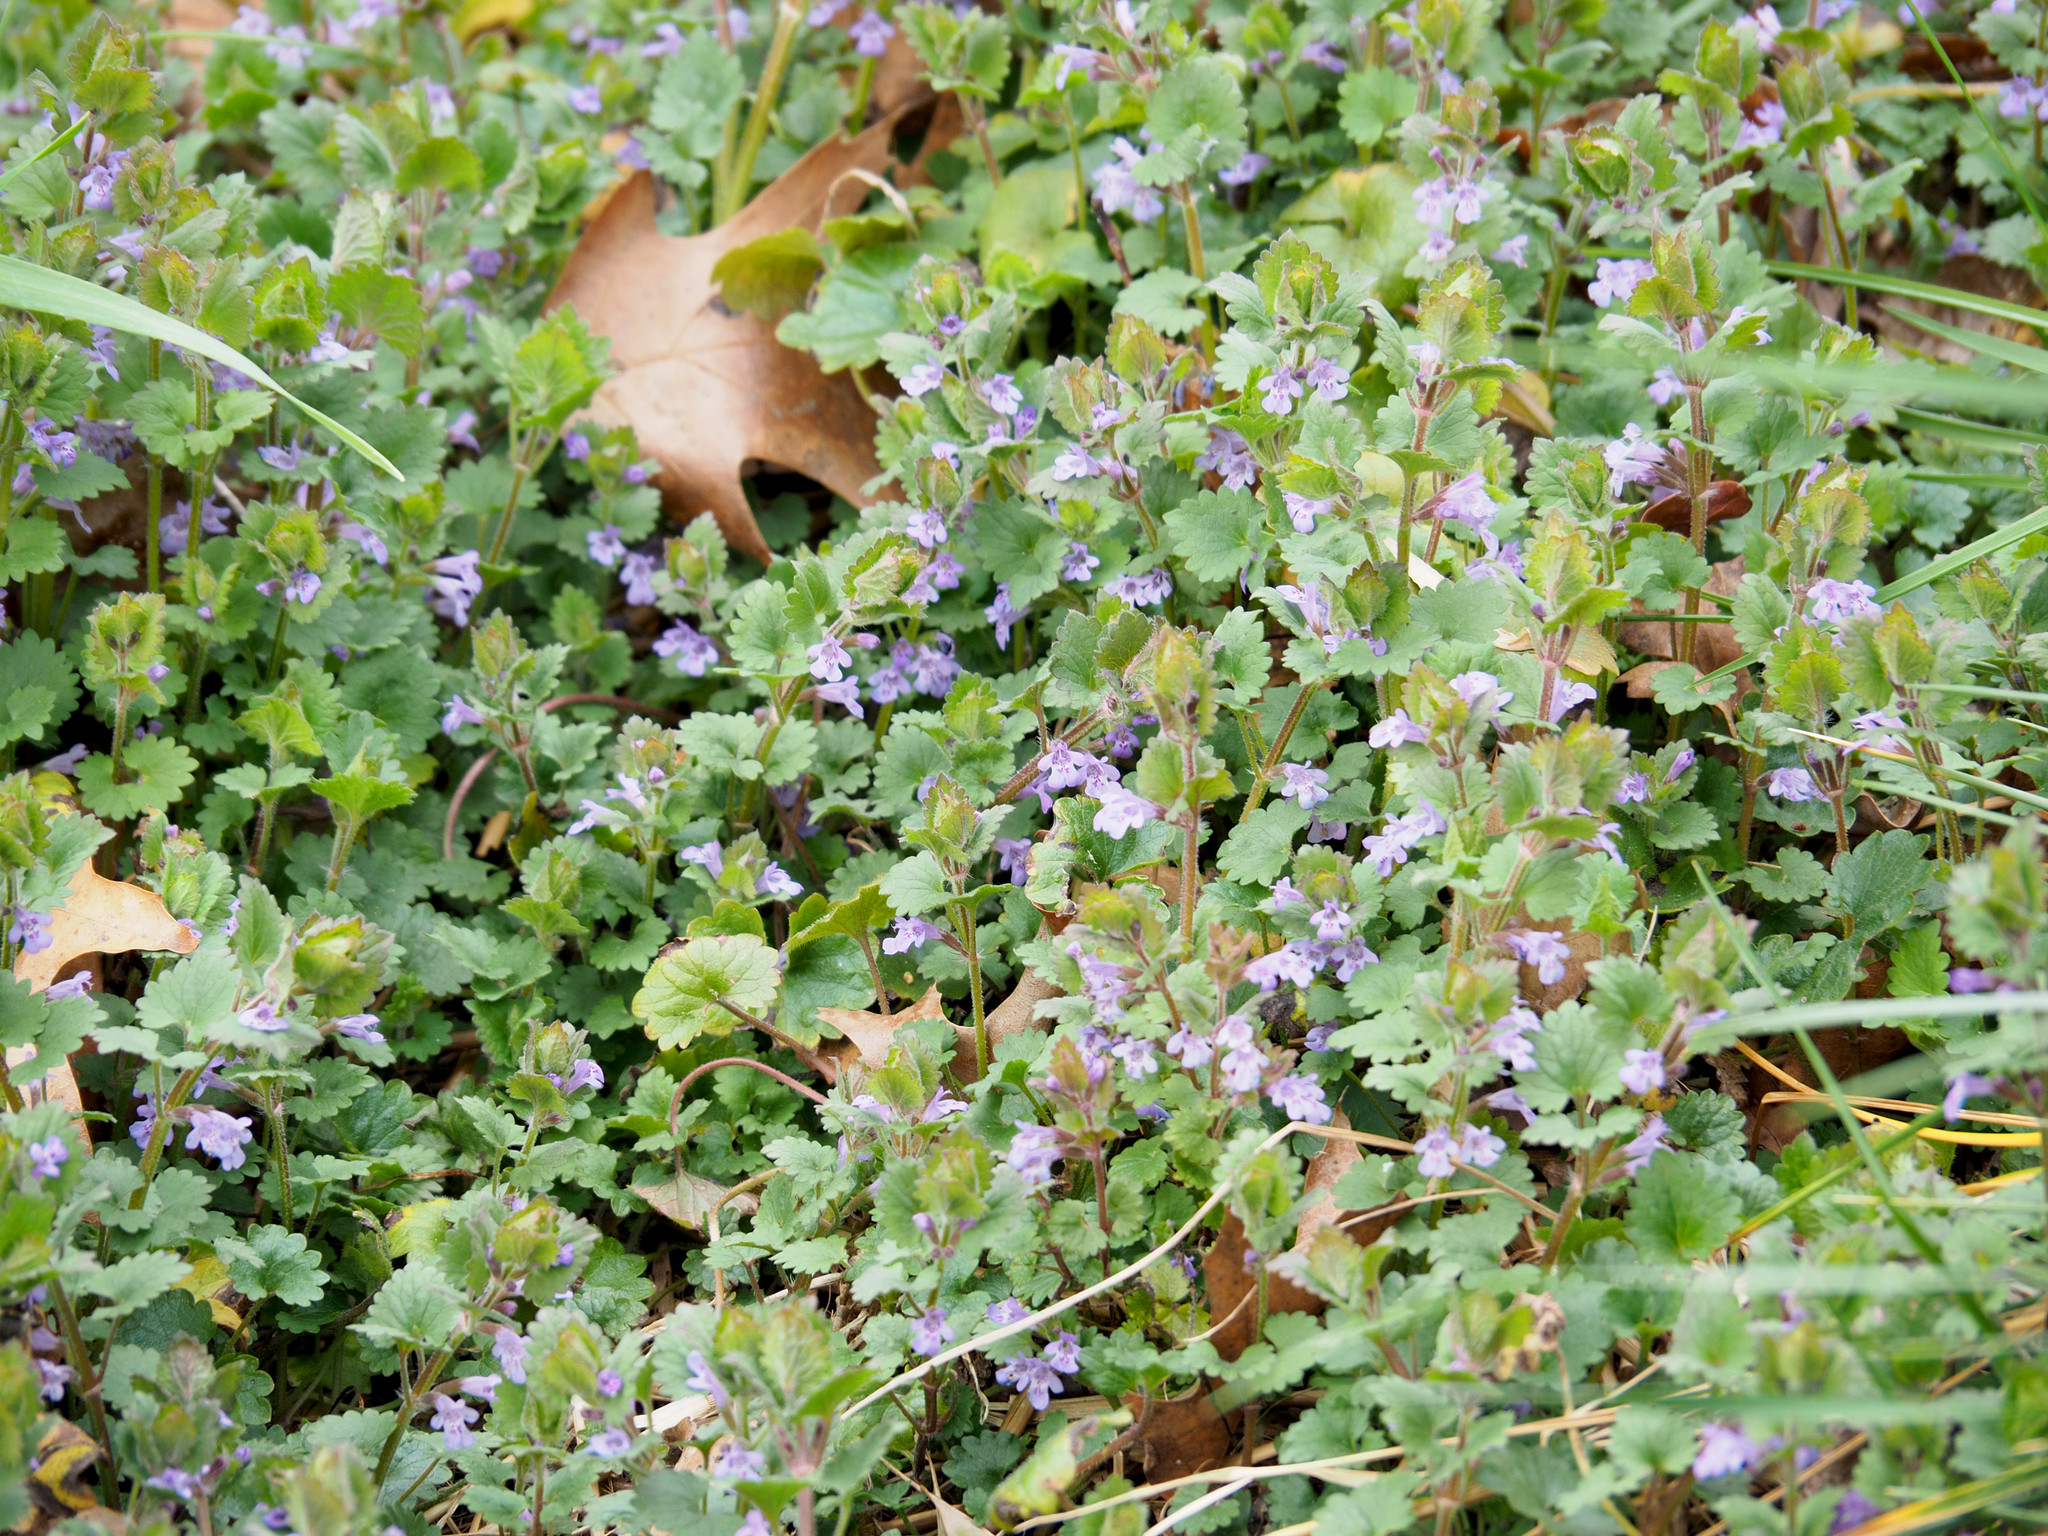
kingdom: Plantae
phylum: Tracheophyta
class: Magnoliopsida
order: Lamiales
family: Lamiaceae
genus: Glechoma
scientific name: Glechoma hederacea
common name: Ground ivy
